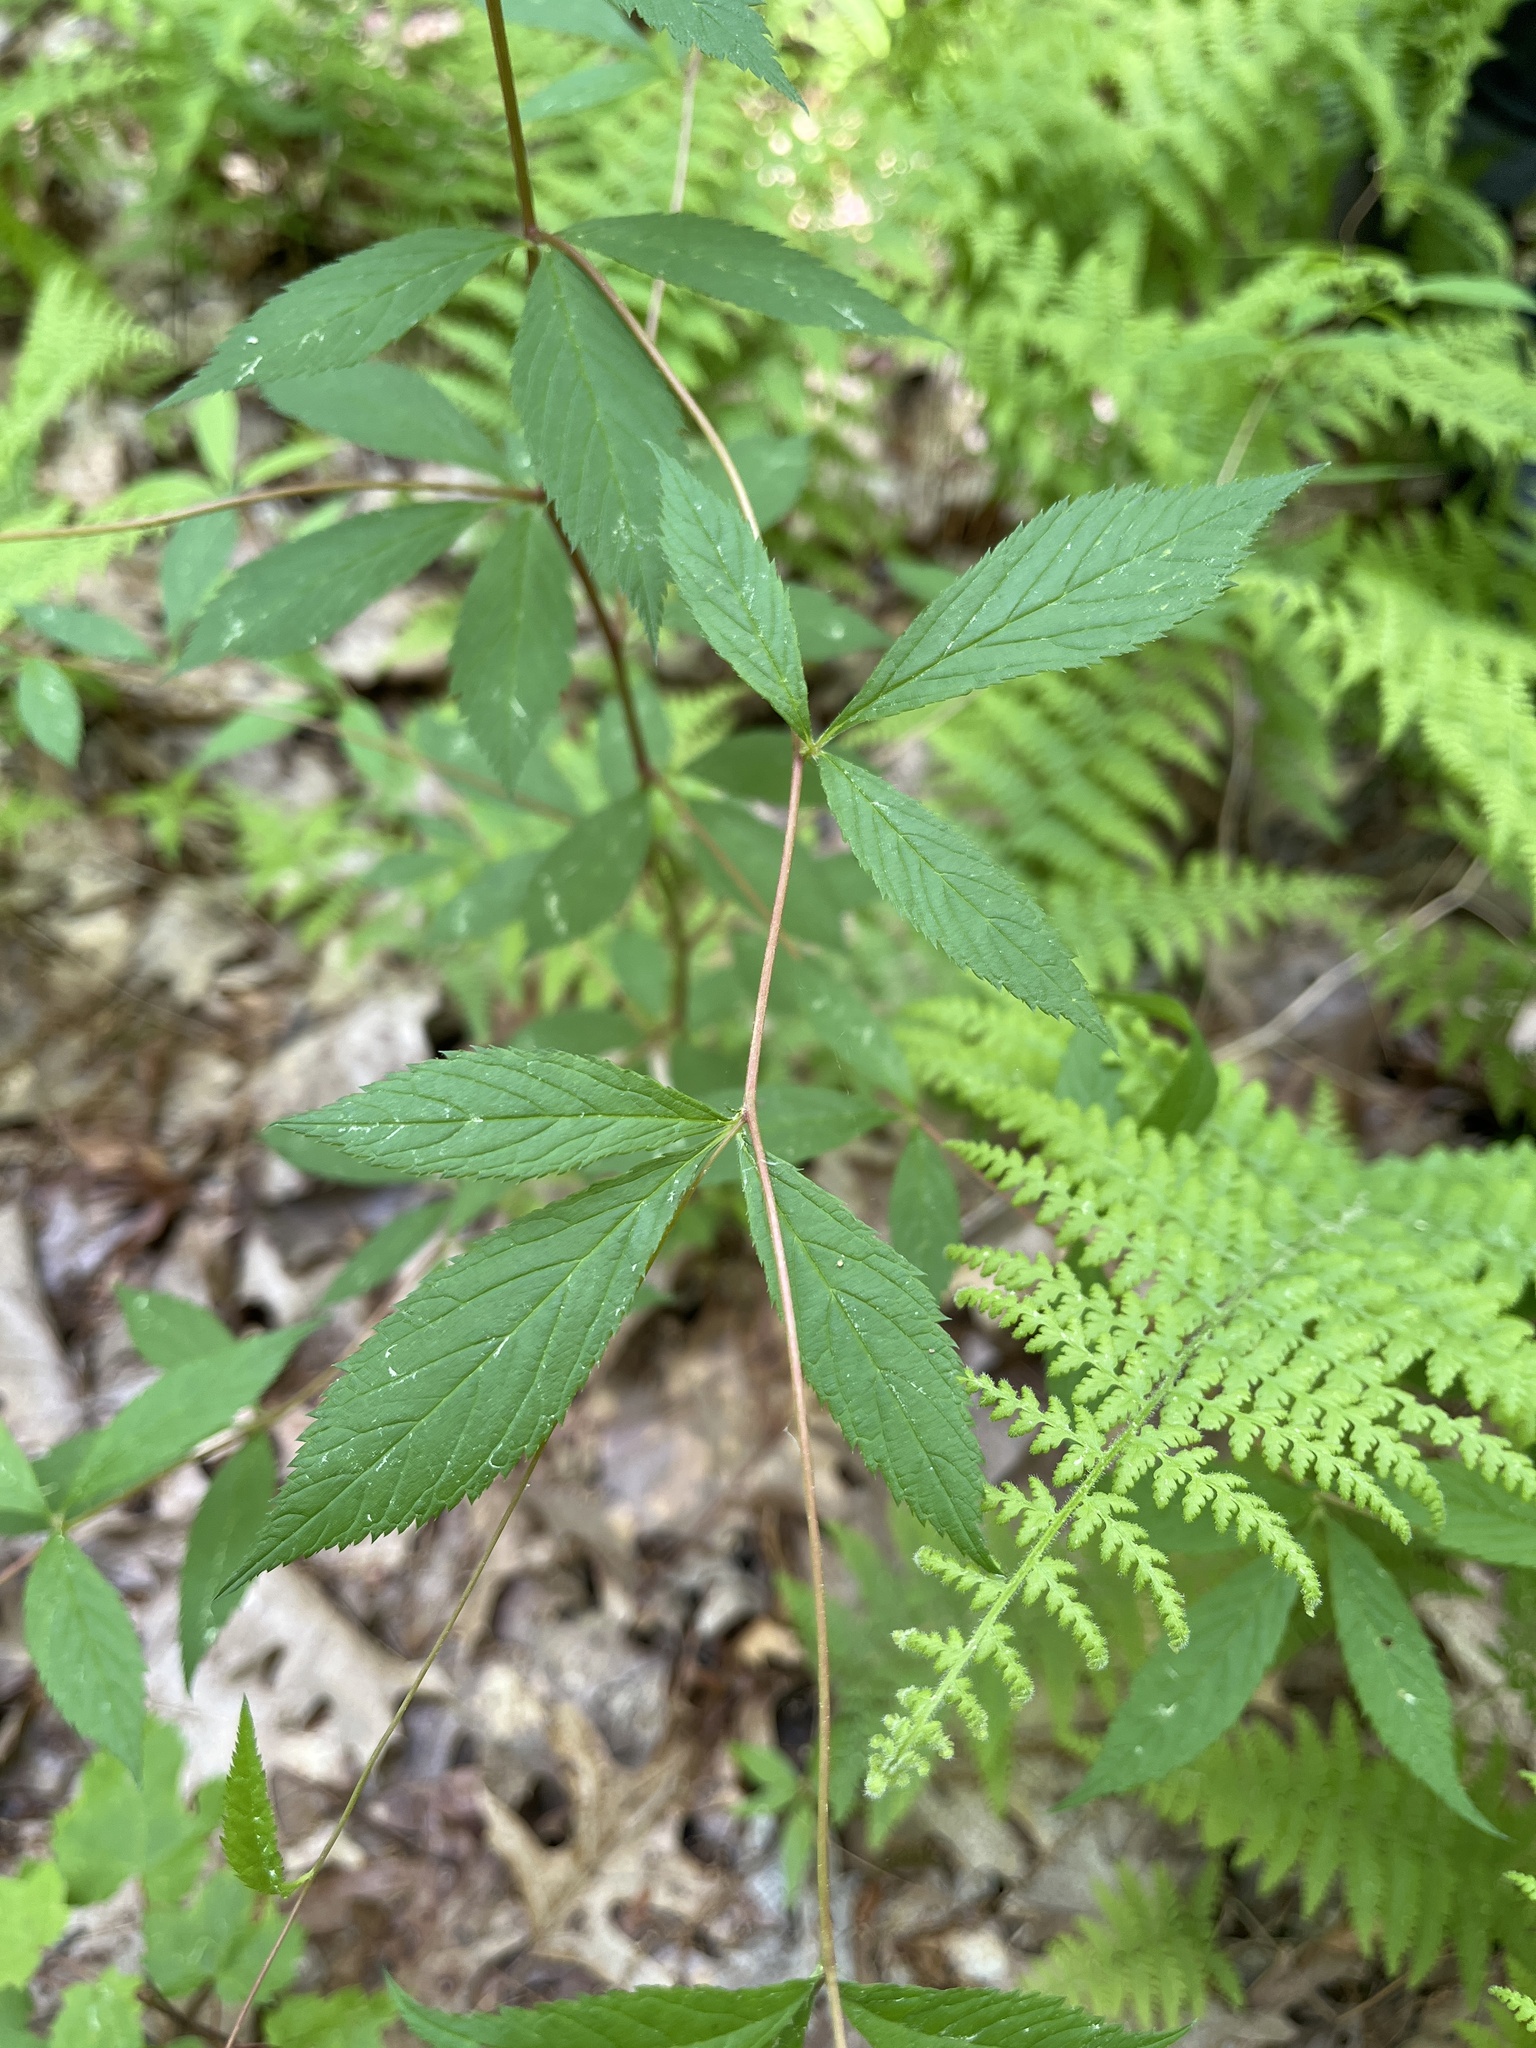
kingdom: Plantae
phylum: Tracheophyta
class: Magnoliopsida
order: Rosales
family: Rosaceae
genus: Gillenia
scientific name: Gillenia trifoliata
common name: Bowman's-root
